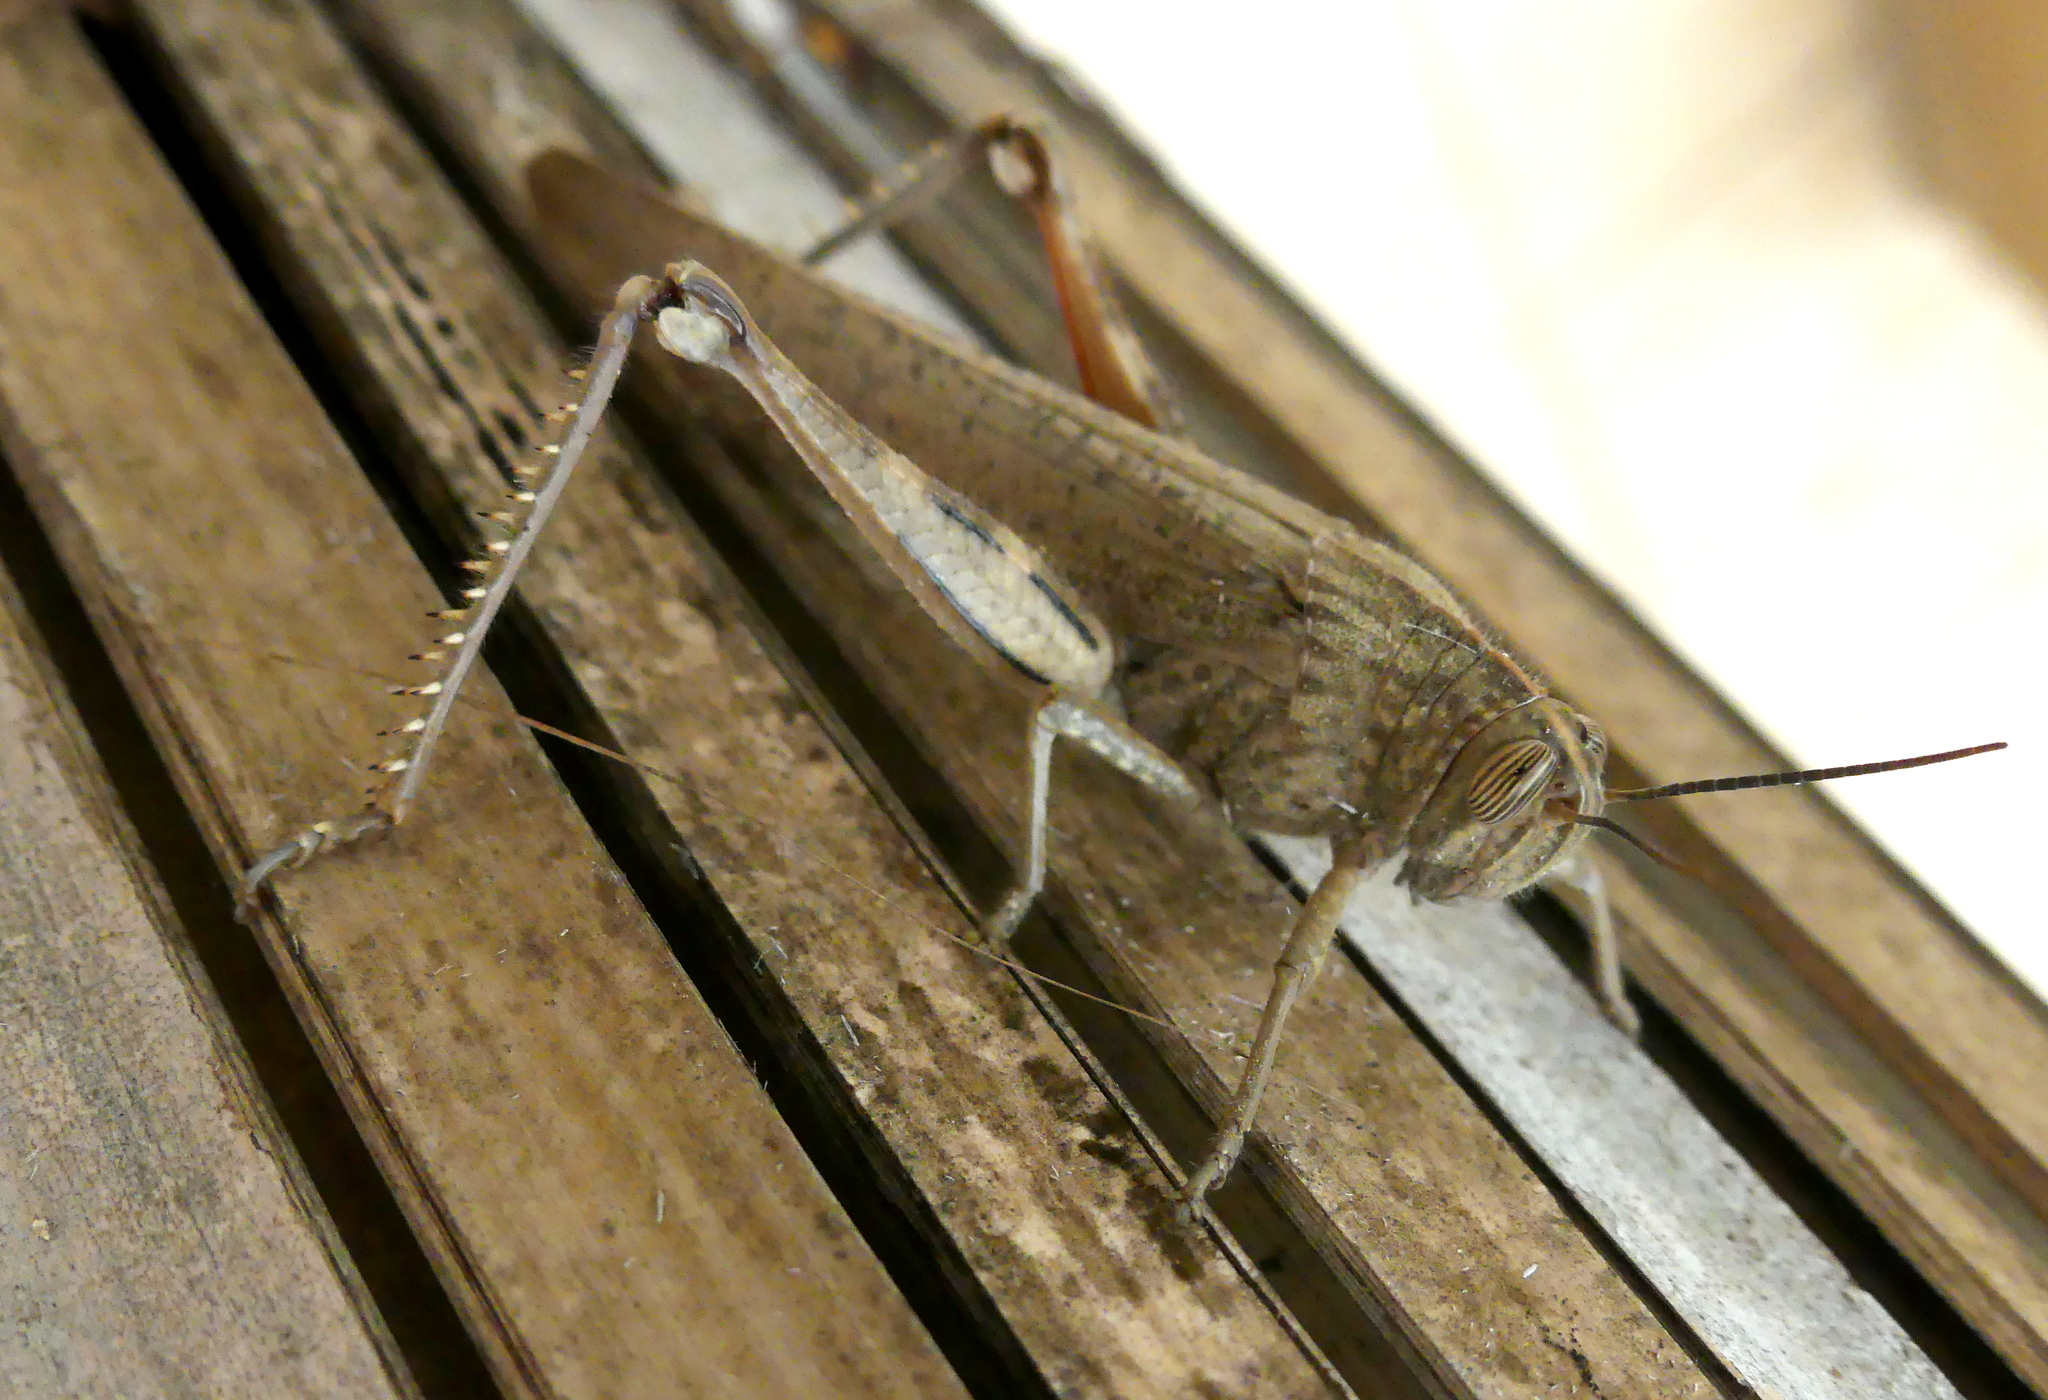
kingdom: Animalia
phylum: Arthropoda
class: Insecta
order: Orthoptera
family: Acrididae
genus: Anacridium
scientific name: Anacridium aegyptium
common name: Egyptian grasshopper
